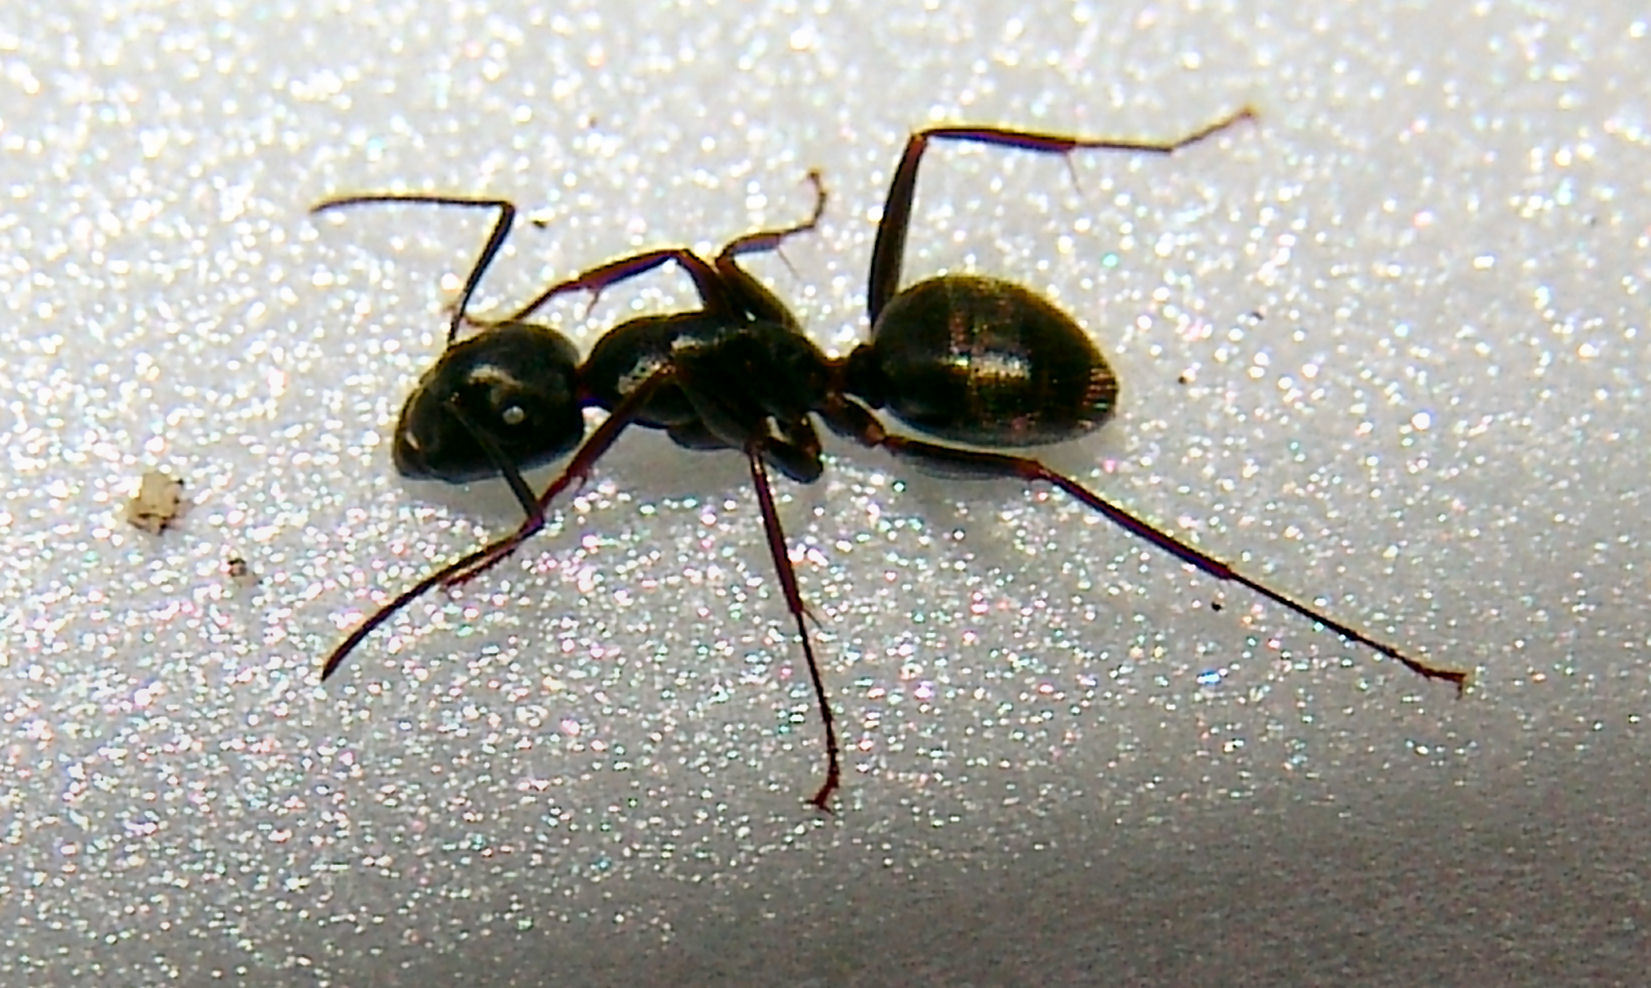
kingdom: Animalia
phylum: Arthropoda
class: Insecta
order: Hymenoptera
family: Formicidae
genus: Camponotus
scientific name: Camponotus pennsylvanicus
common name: Black carpenter ant
